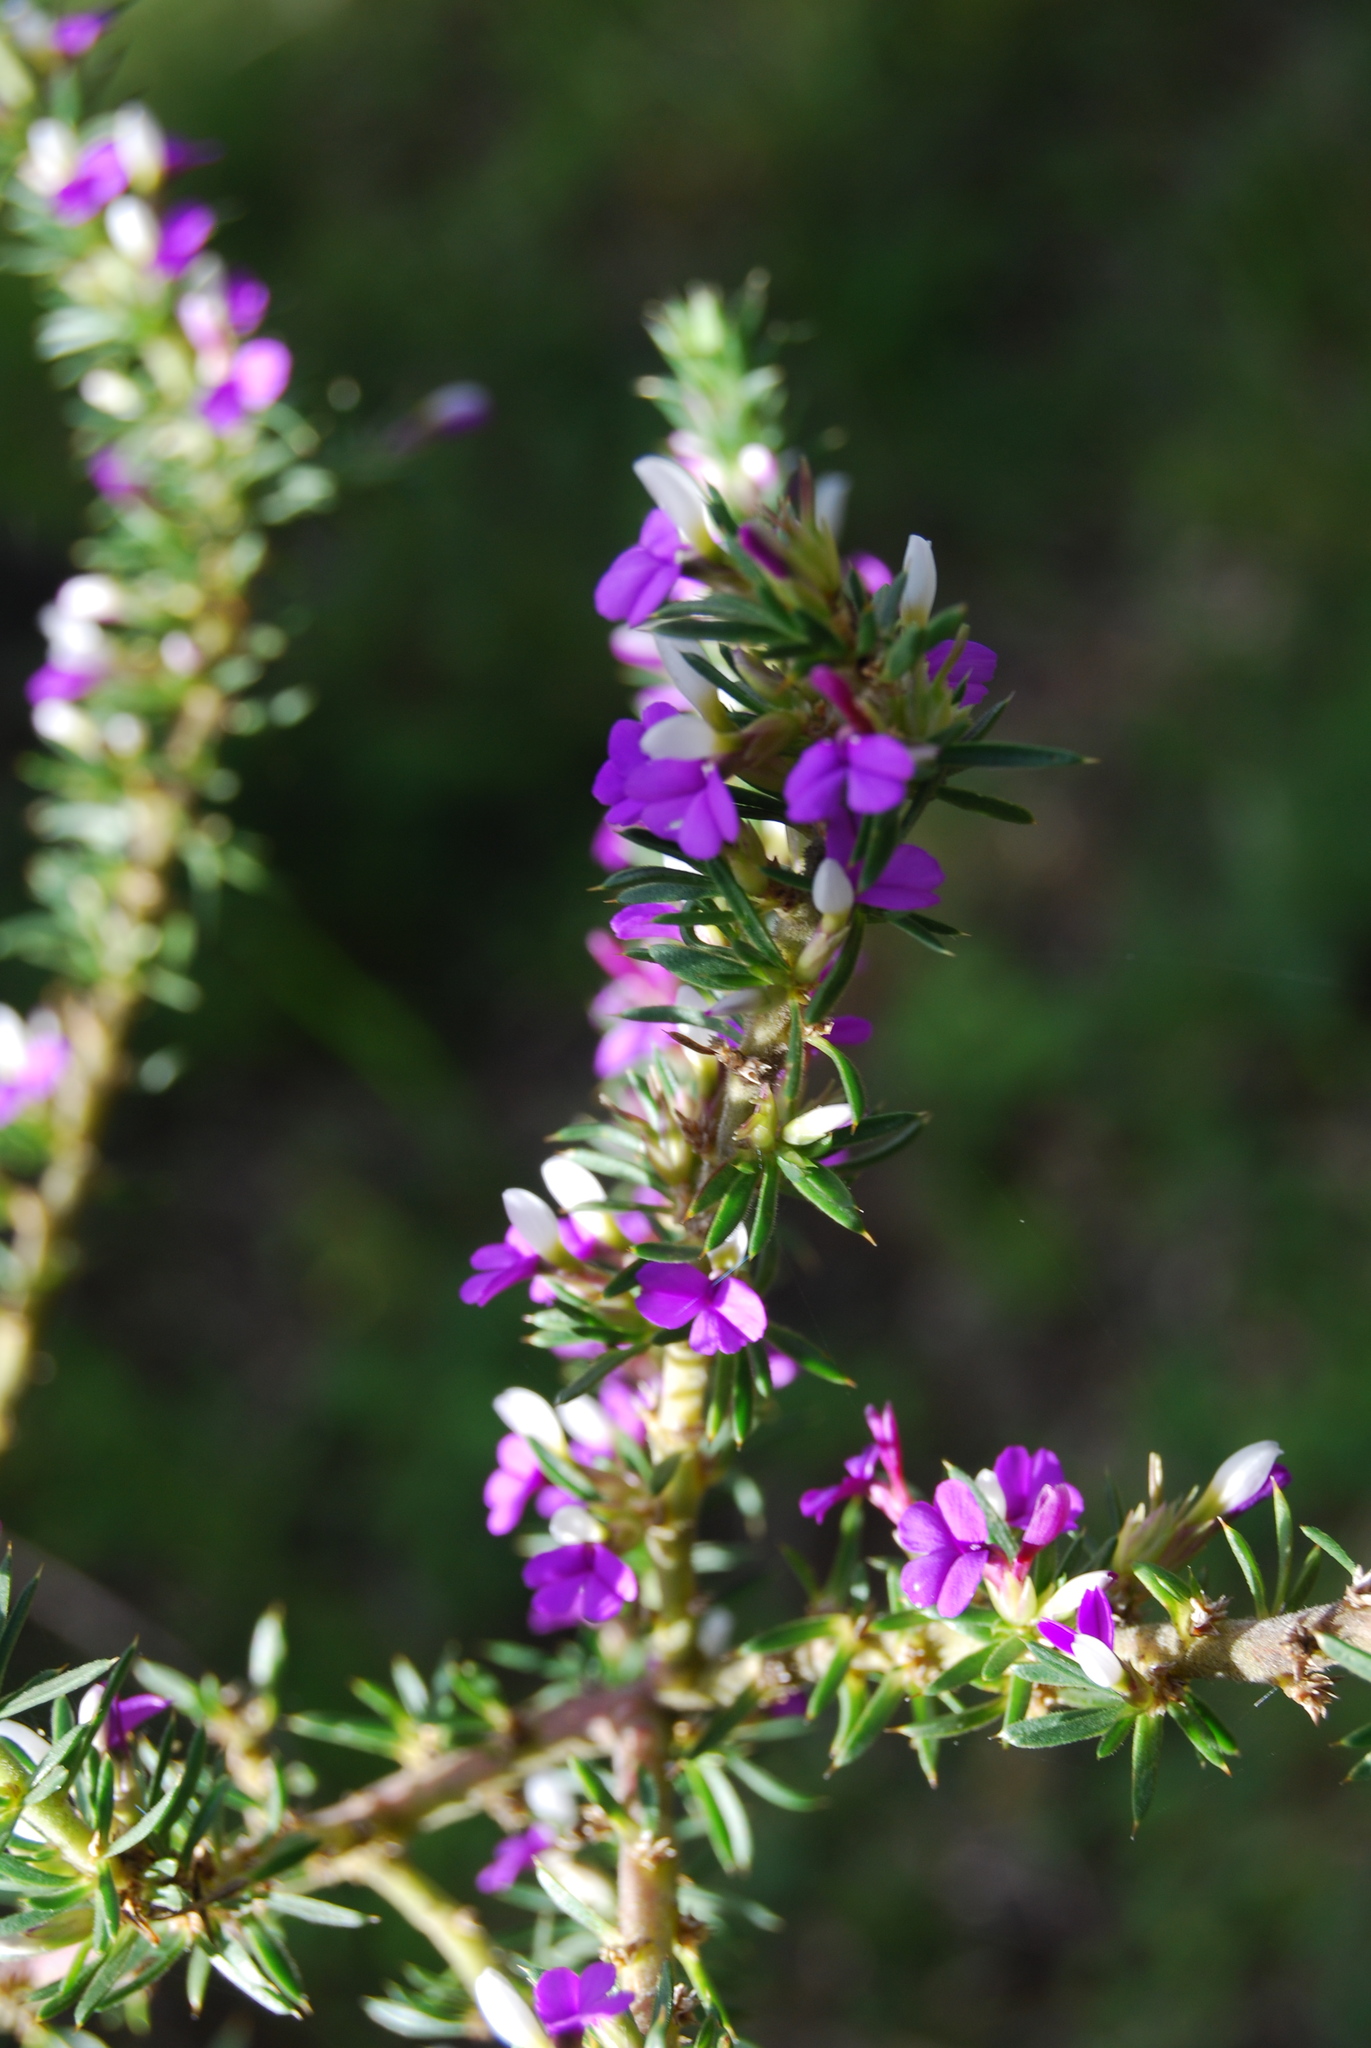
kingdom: Plantae
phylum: Tracheophyta
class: Magnoliopsida
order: Fabales
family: Polygalaceae
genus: Muraltia
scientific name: Muraltia heisteria
